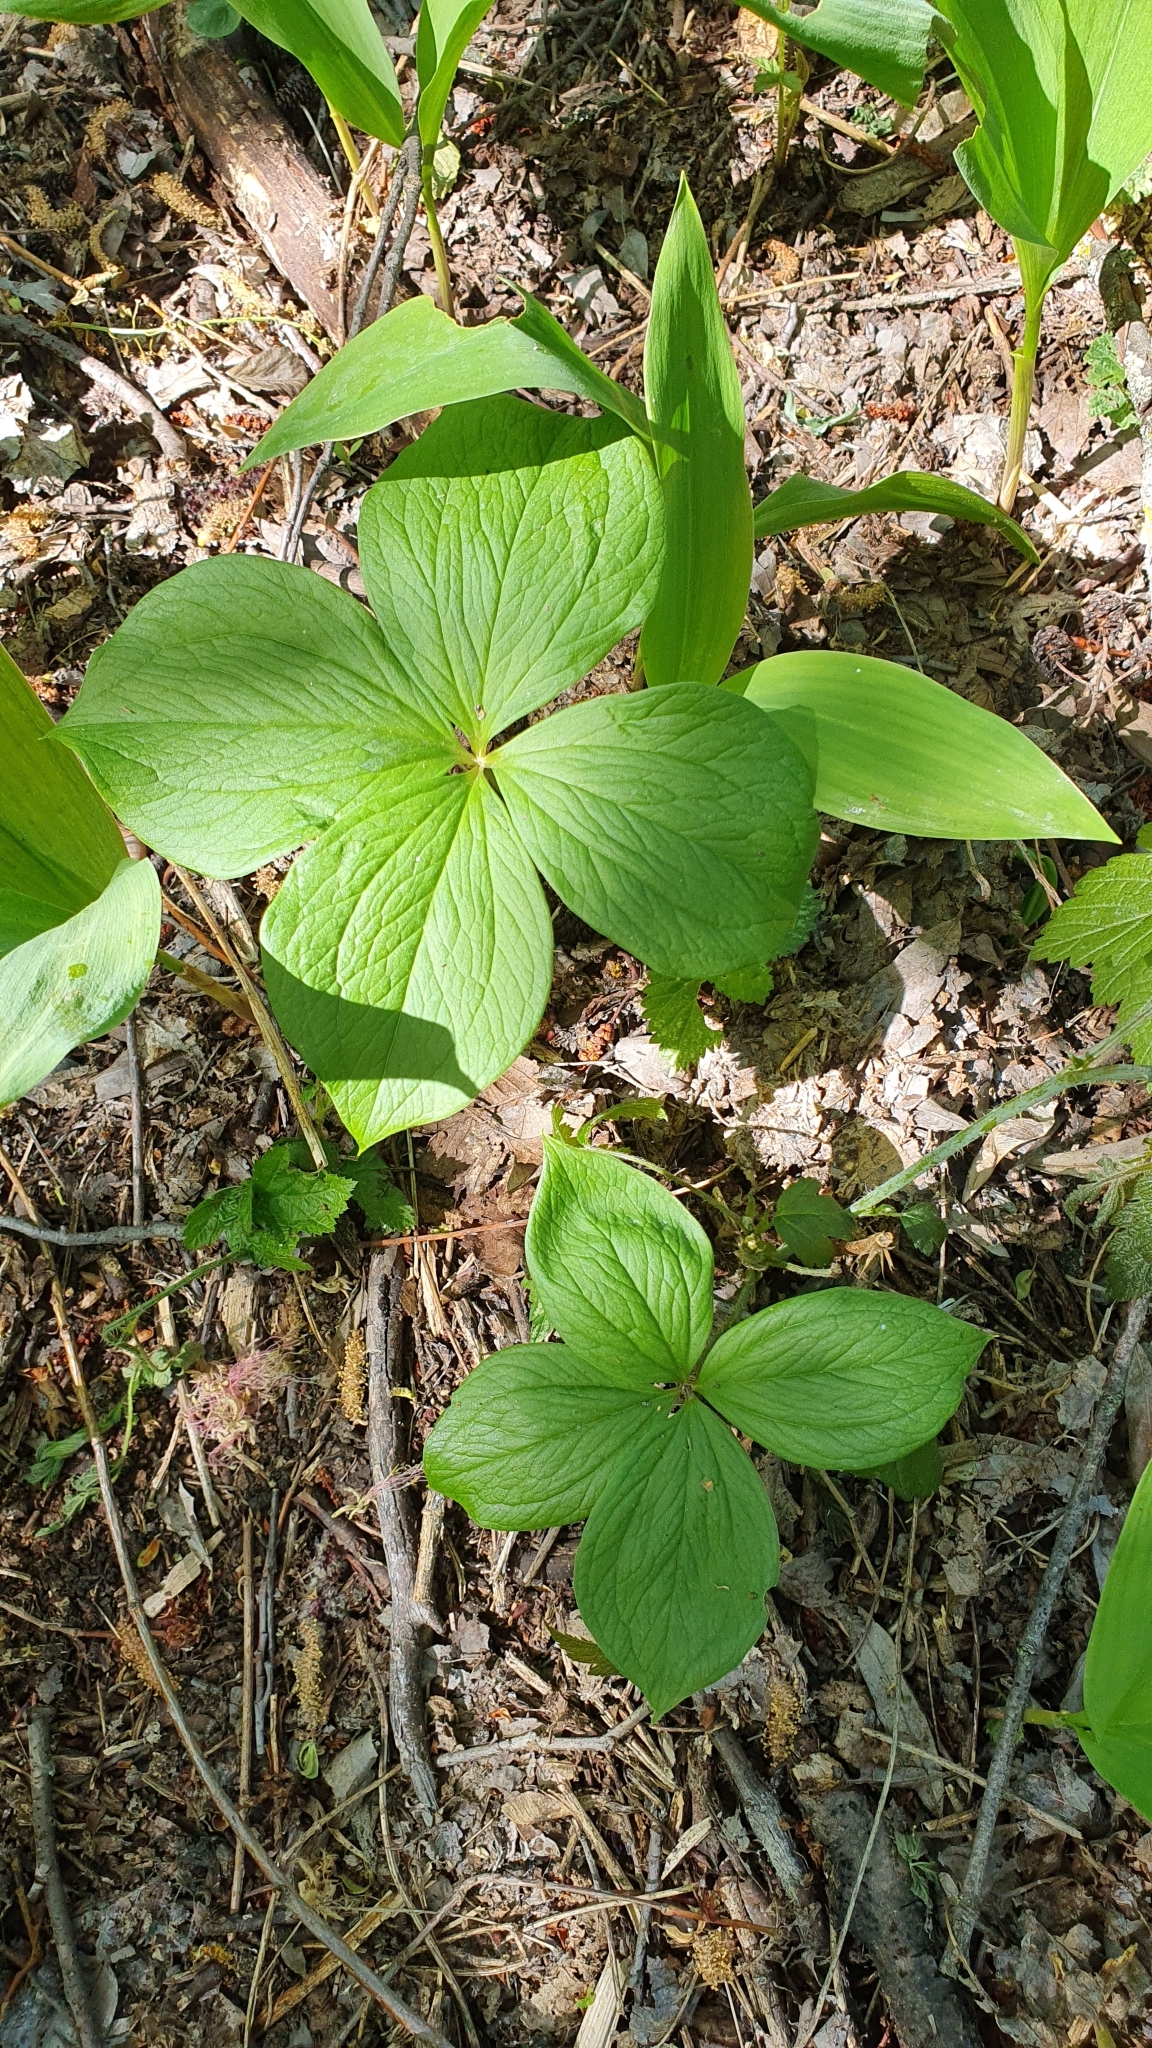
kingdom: Plantae
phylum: Tracheophyta
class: Liliopsida
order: Liliales
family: Melanthiaceae
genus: Paris
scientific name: Paris quadrifolia
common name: Herb-paris
